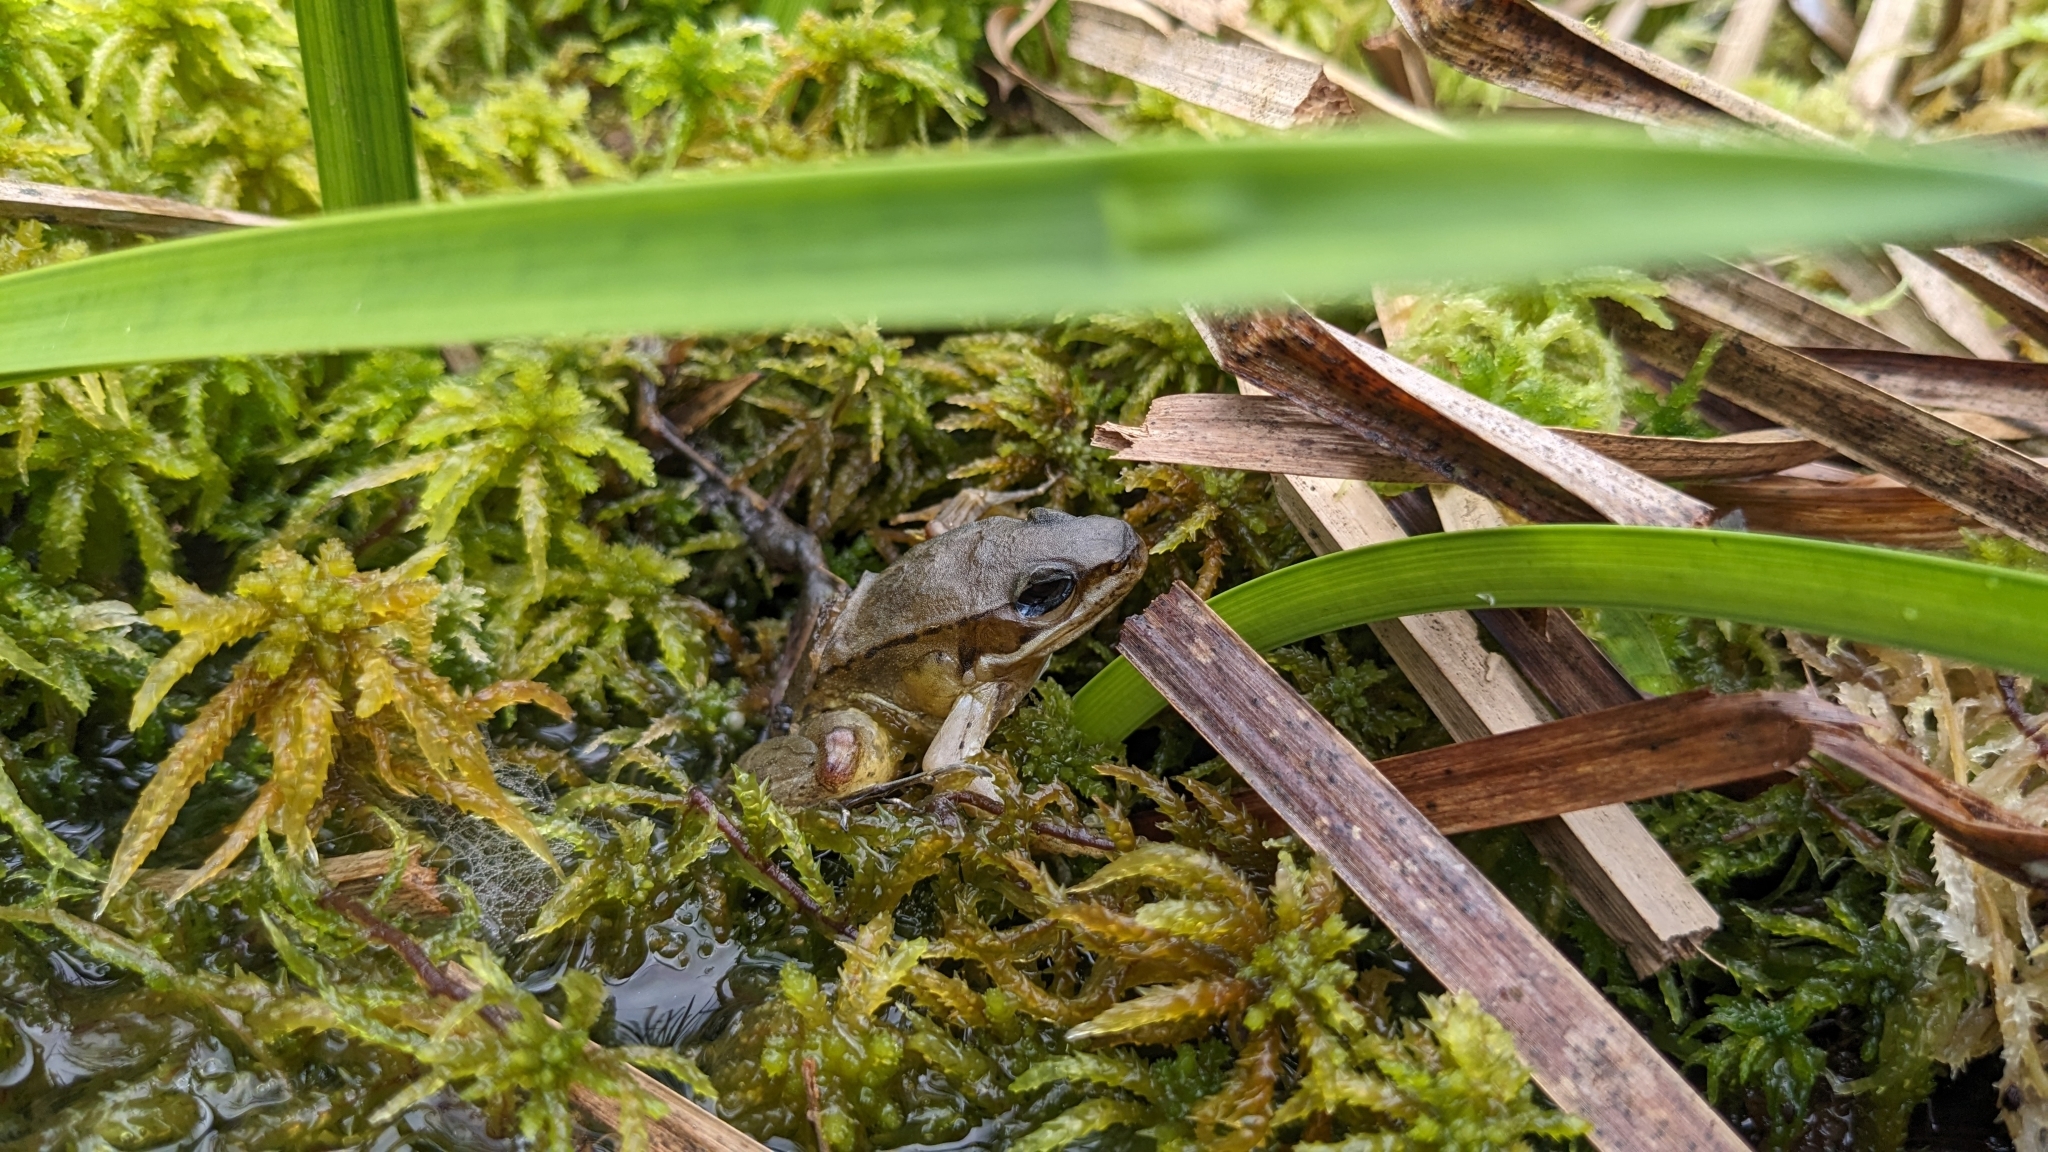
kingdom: Animalia
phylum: Chordata
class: Amphibia
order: Anura
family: Ranidae
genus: Nidirana
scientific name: Nidirana adenopleura
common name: Olive frog
